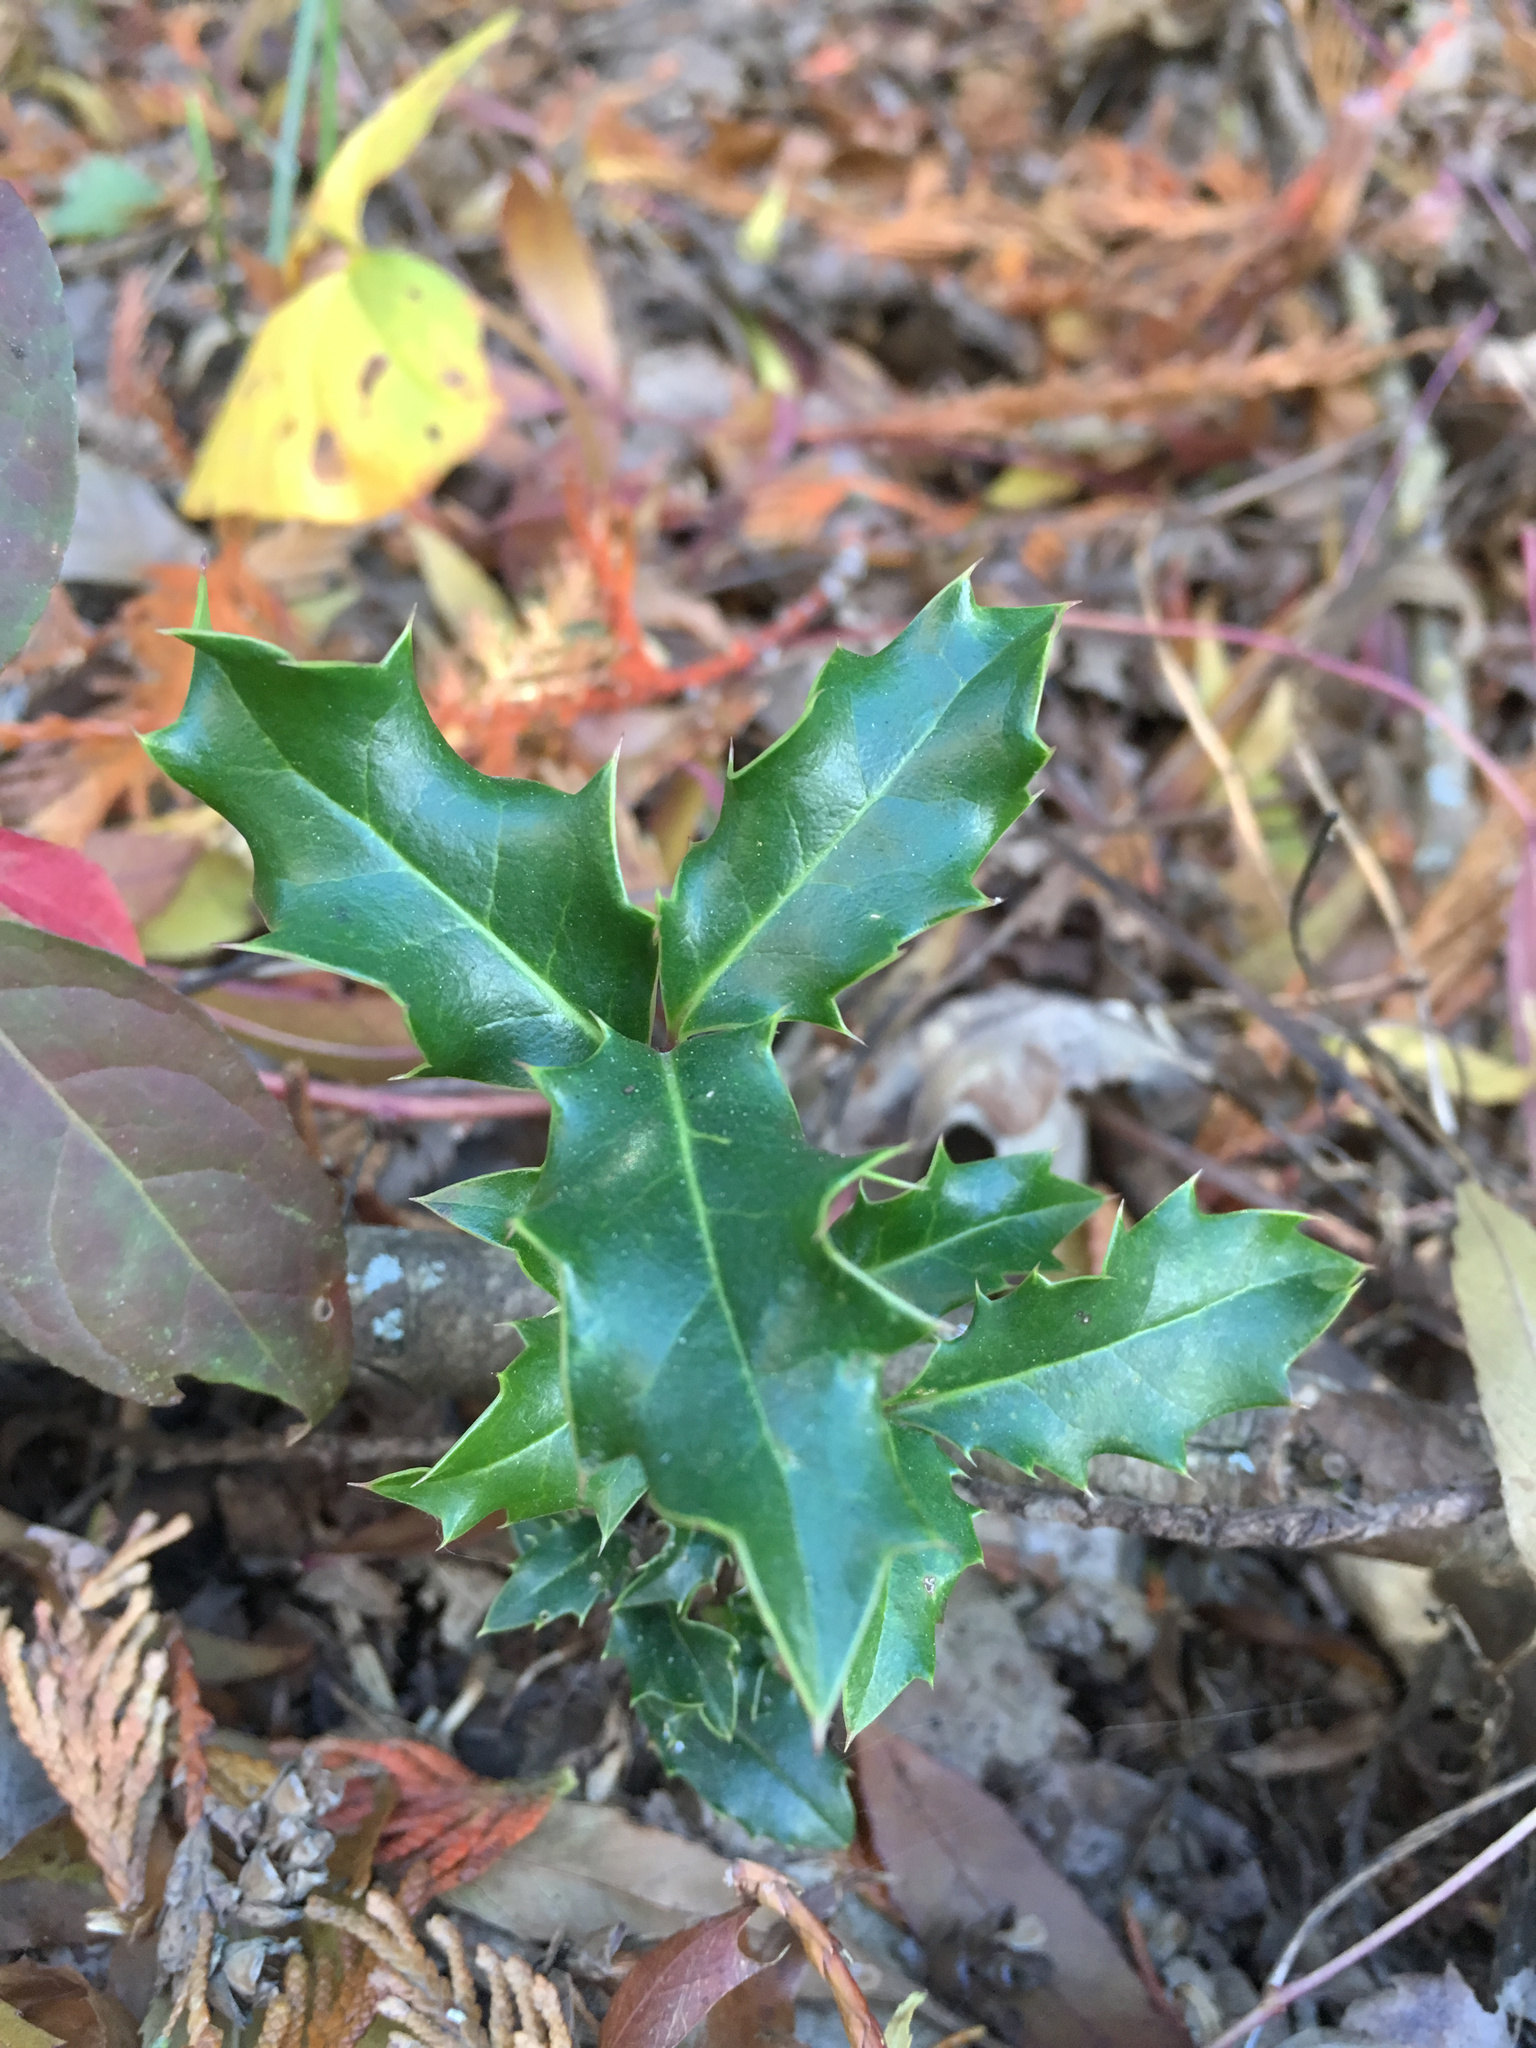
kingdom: Plantae
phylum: Tracheophyta
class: Magnoliopsida
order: Aquifoliales
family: Aquifoliaceae
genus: Ilex
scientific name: Ilex aquifolium
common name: English holly
